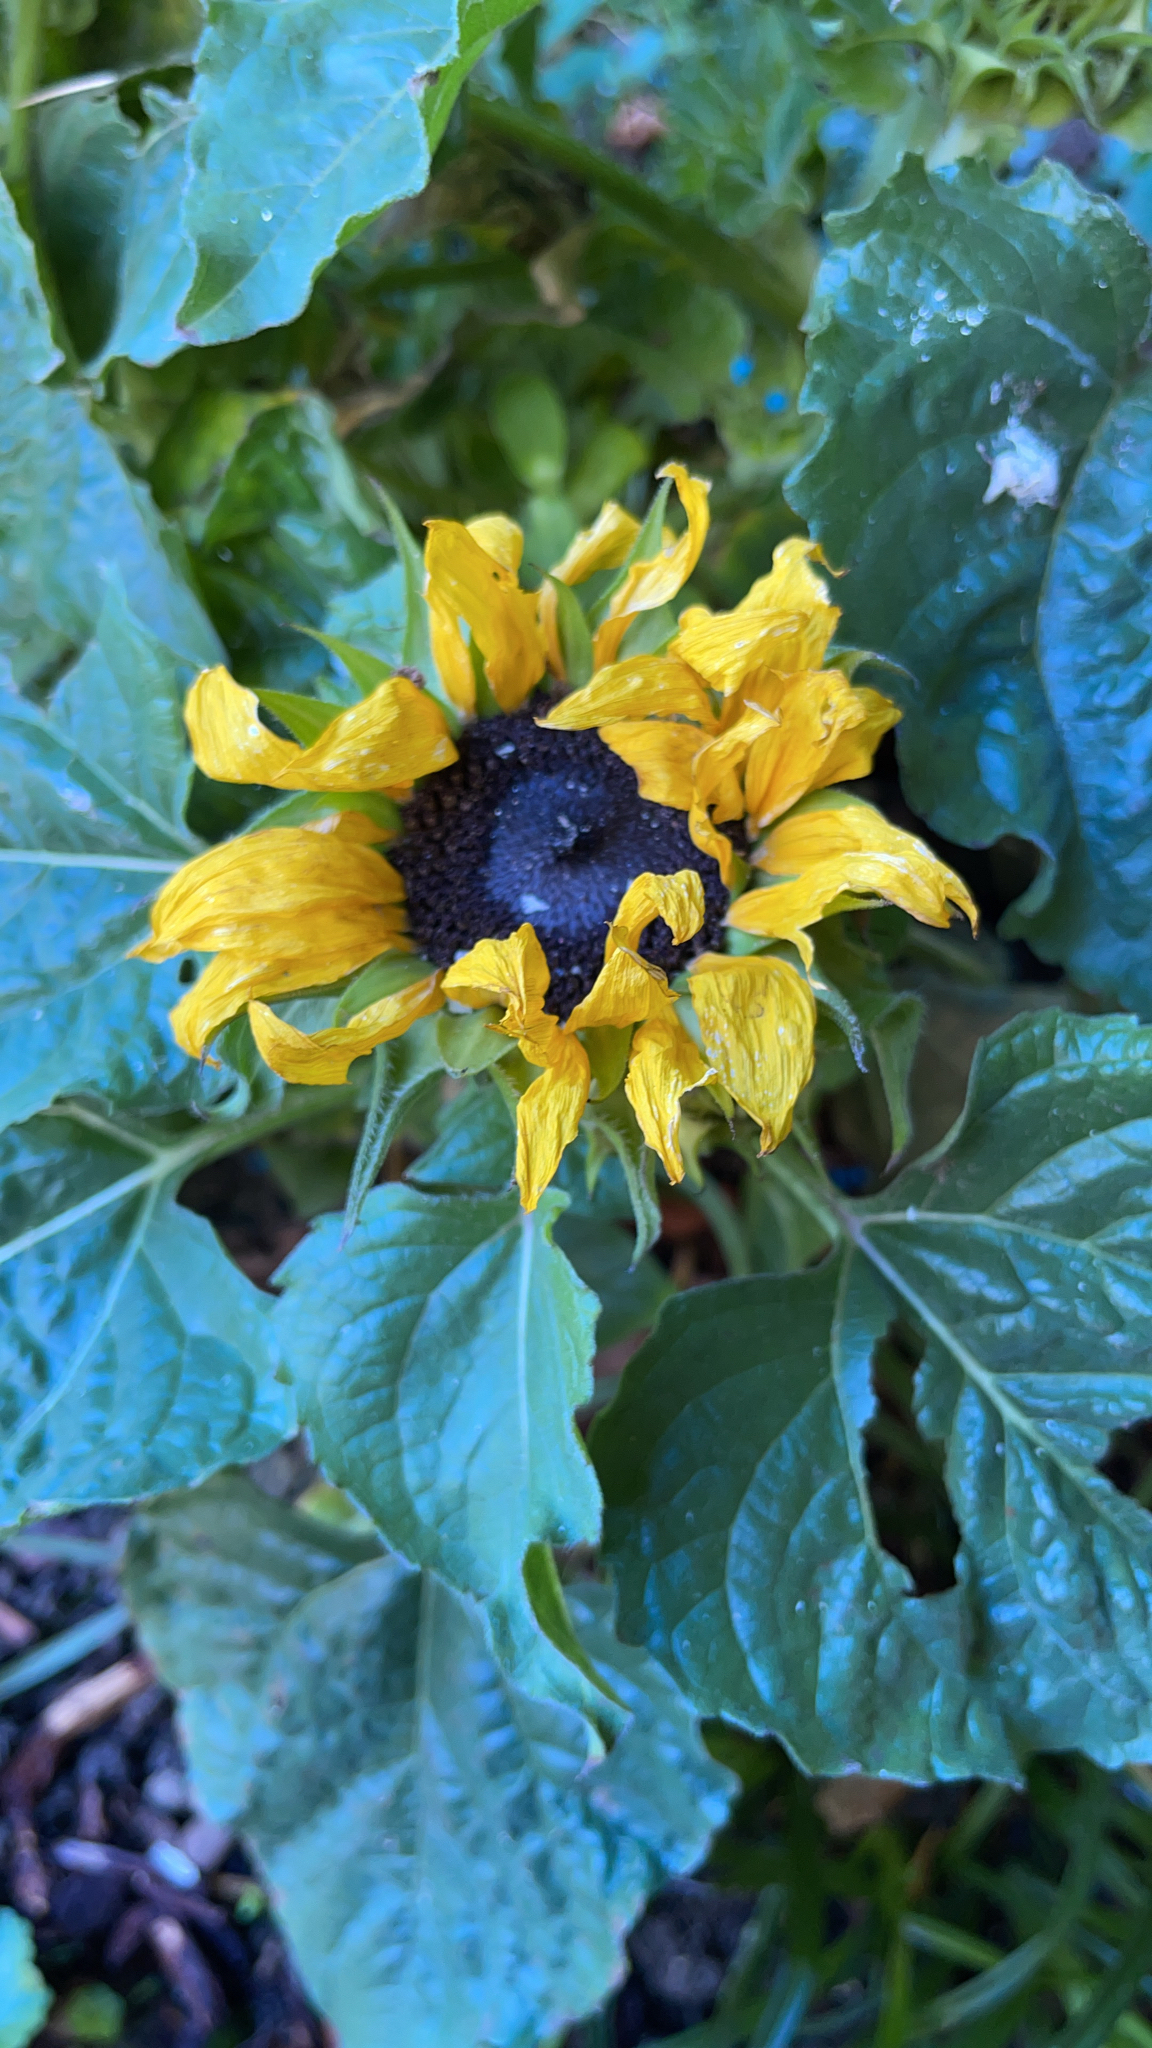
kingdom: Plantae
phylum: Tracheophyta
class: Magnoliopsida
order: Asterales
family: Asteraceae
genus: Helianthus
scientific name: Helianthus annuus
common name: Sunflower
